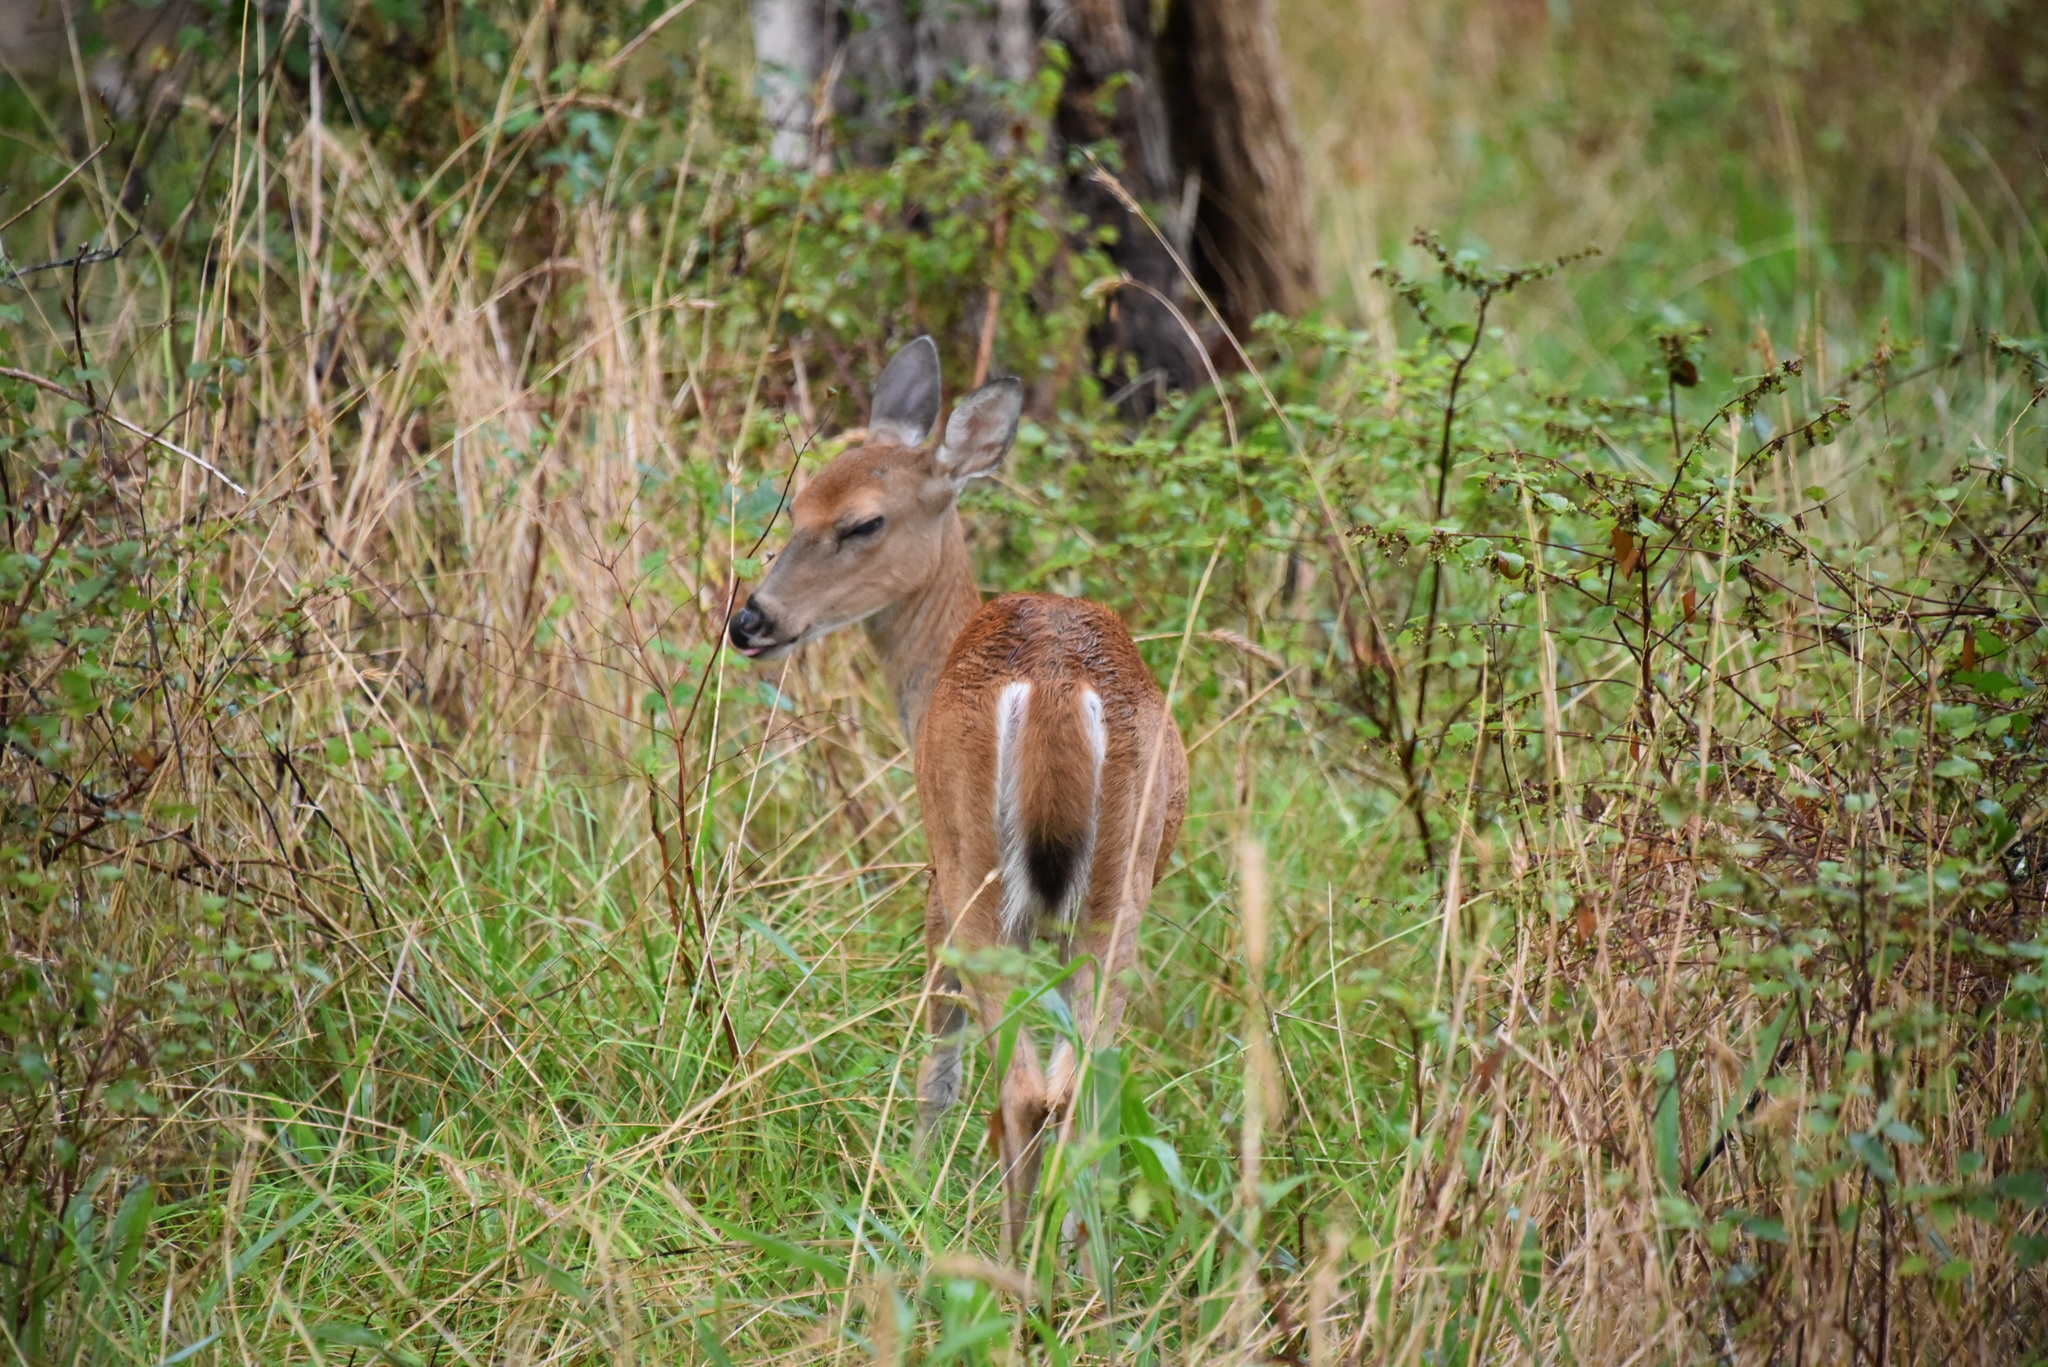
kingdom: Animalia
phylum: Chordata
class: Mammalia
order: Artiodactyla
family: Cervidae
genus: Odocoileus
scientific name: Odocoileus virginianus
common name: White-tailed deer
